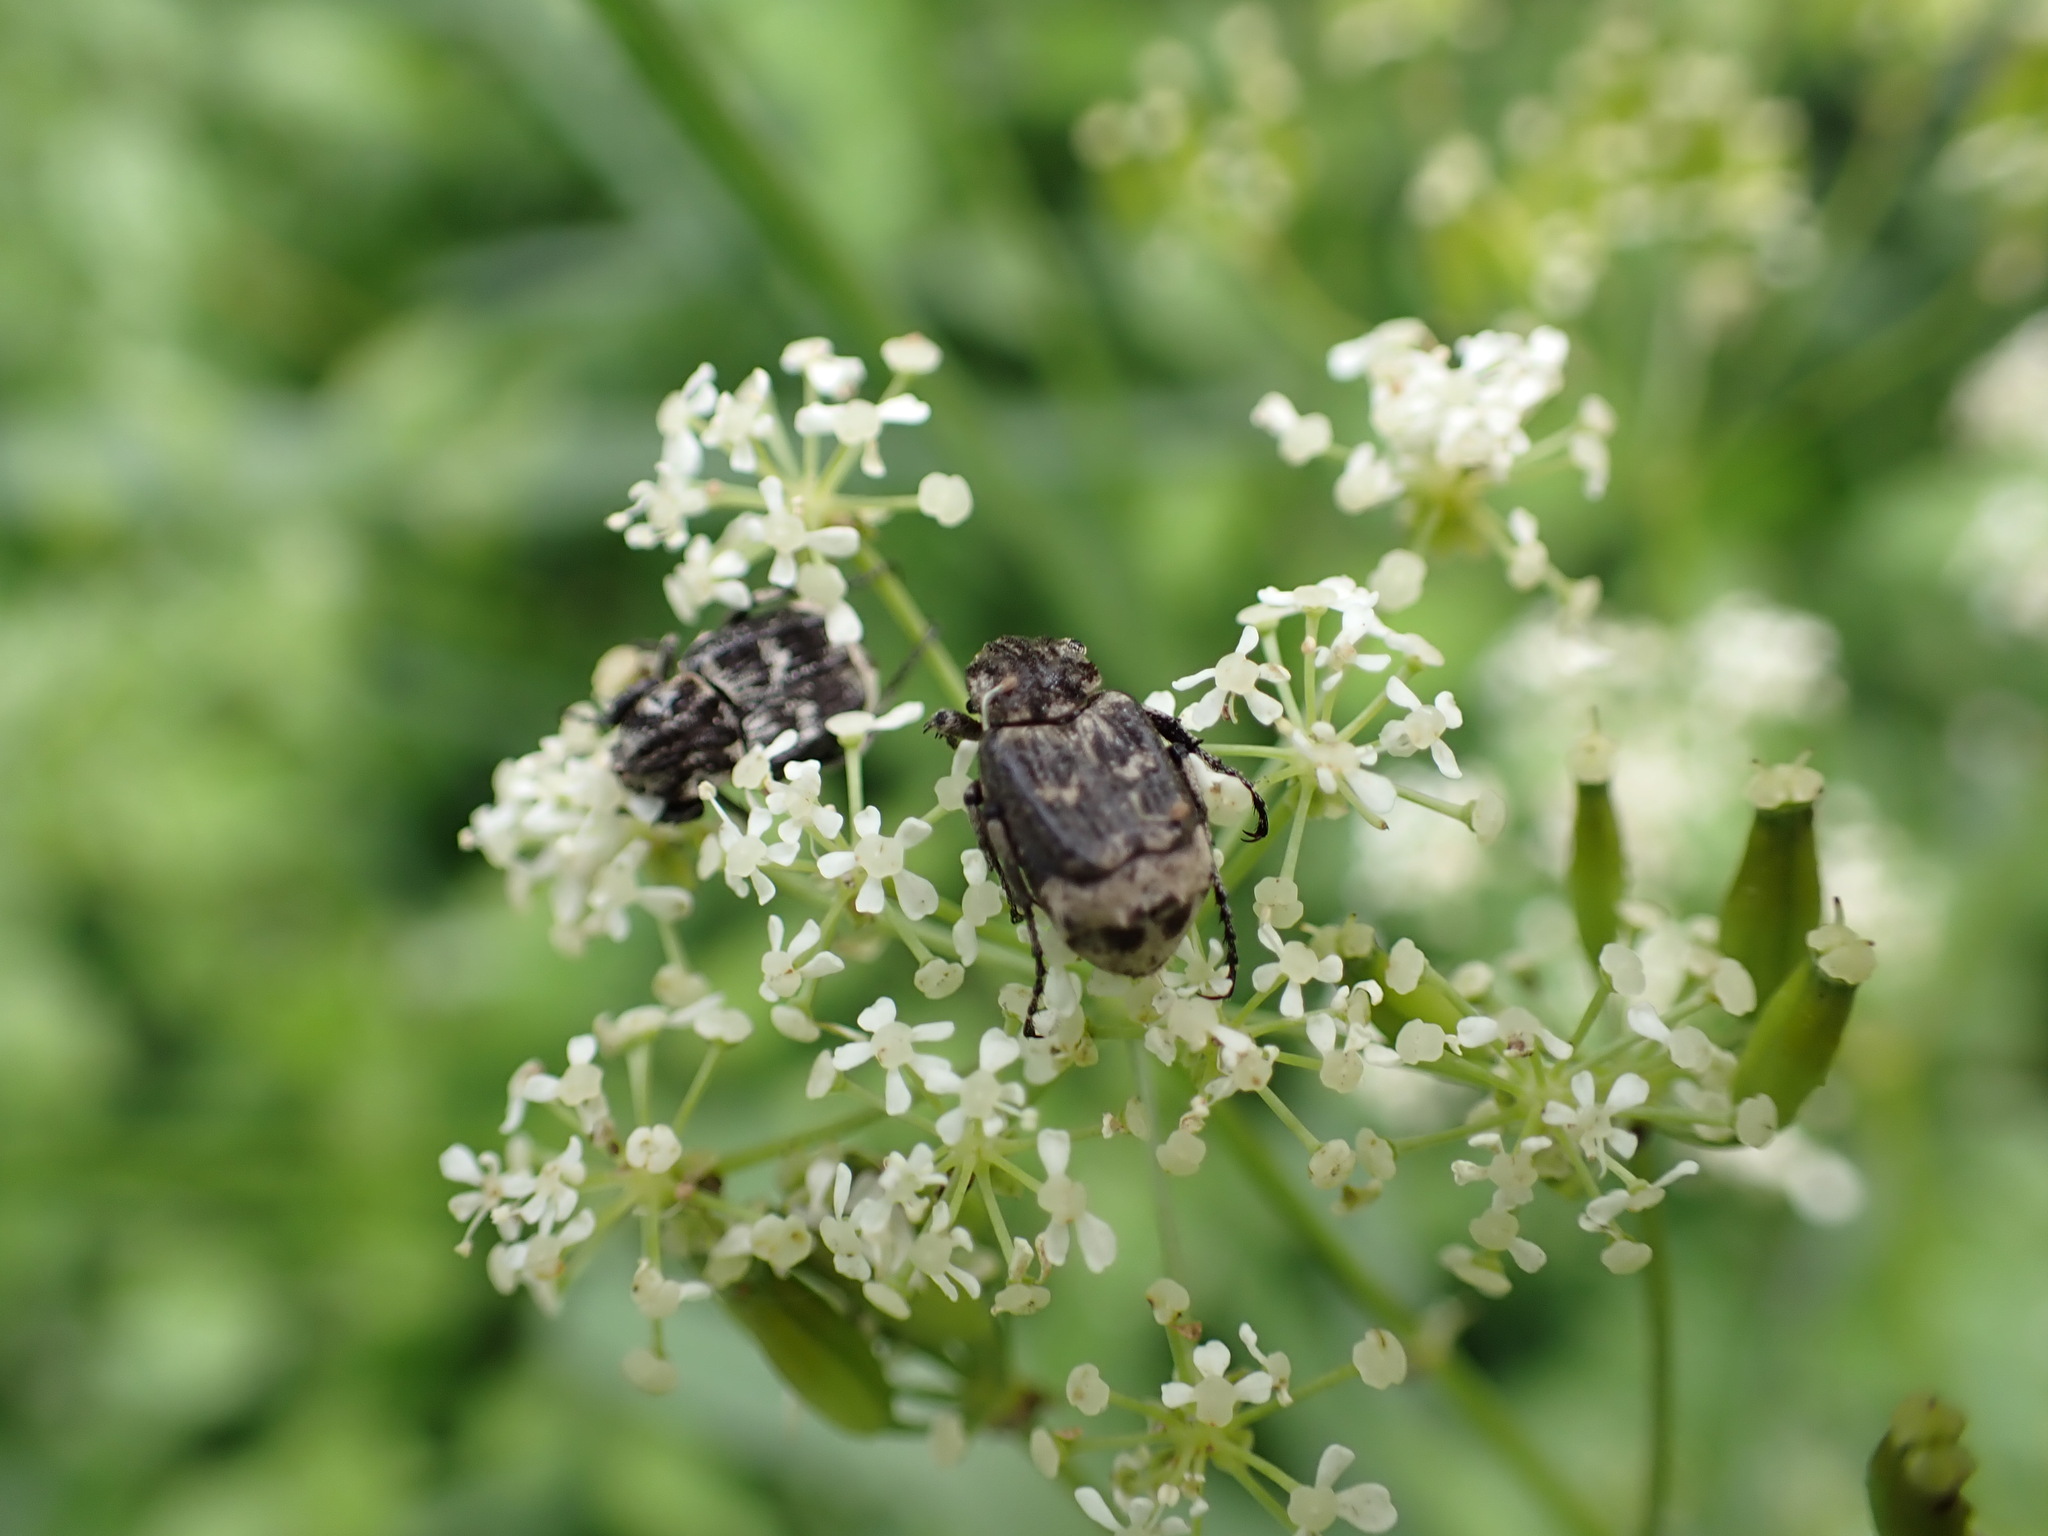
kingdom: Animalia
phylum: Arthropoda
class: Insecta
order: Coleoptera
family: Scarabaeidae
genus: Valgus
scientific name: Valgus hemipterus
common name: Bug flower chafer
